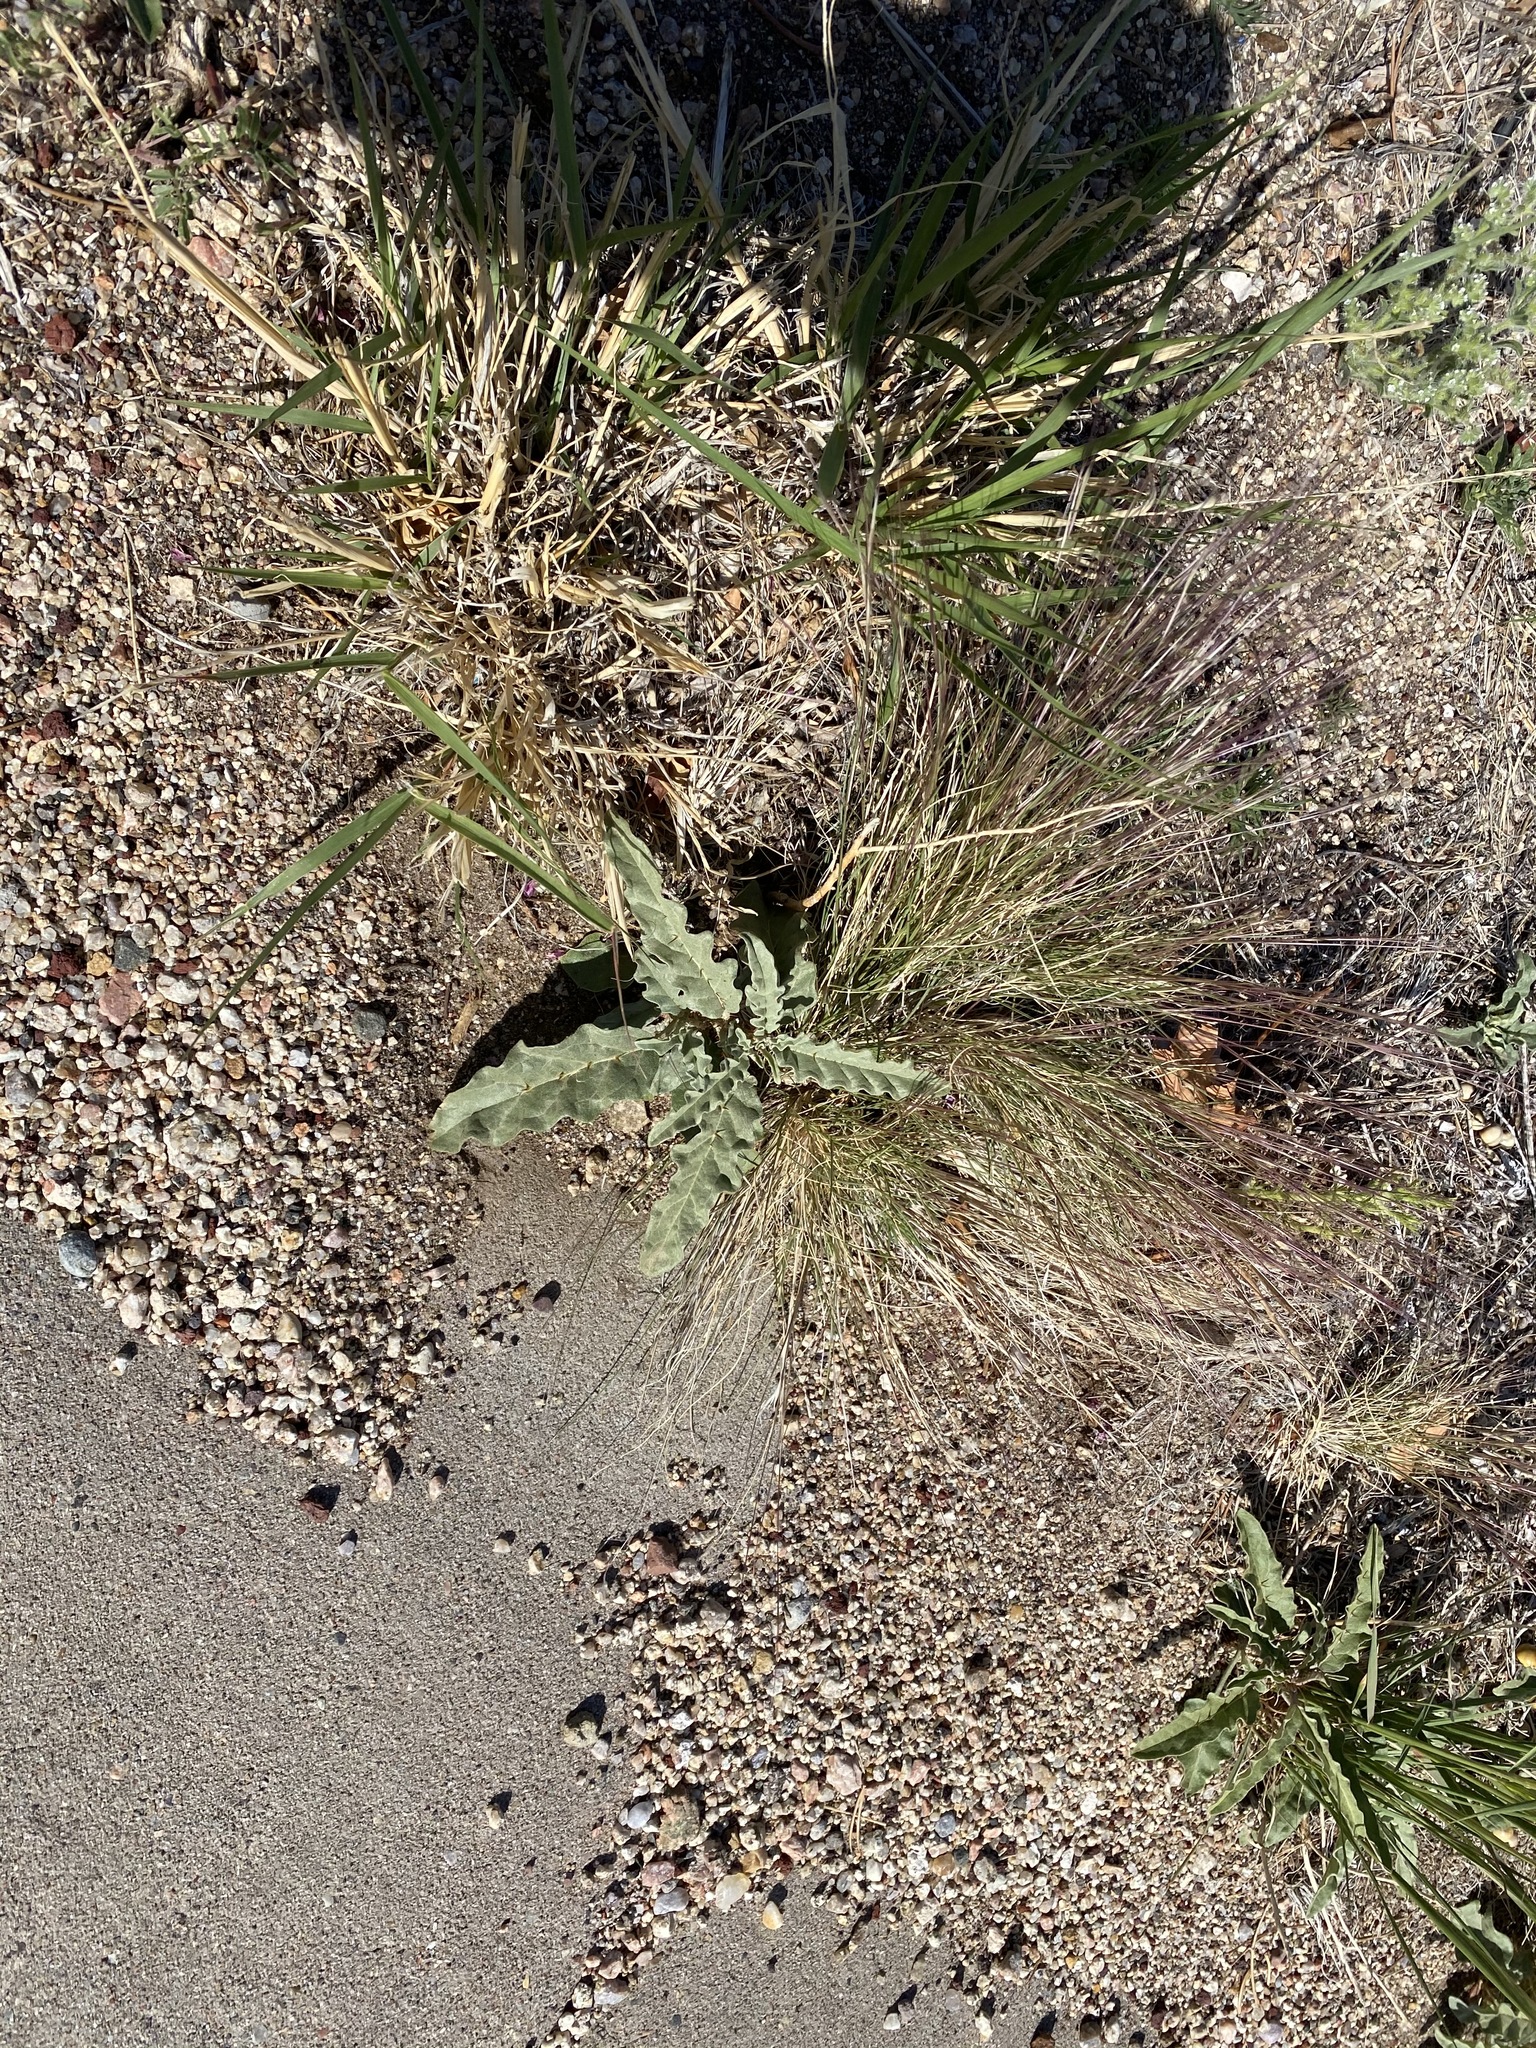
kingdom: Plantae
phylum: Tracheophyta
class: Magnoliopsida
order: Solanales
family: Solanaceae
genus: Solanum
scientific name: Solanum elaeagnifolium
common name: Silverleaf nightshade
